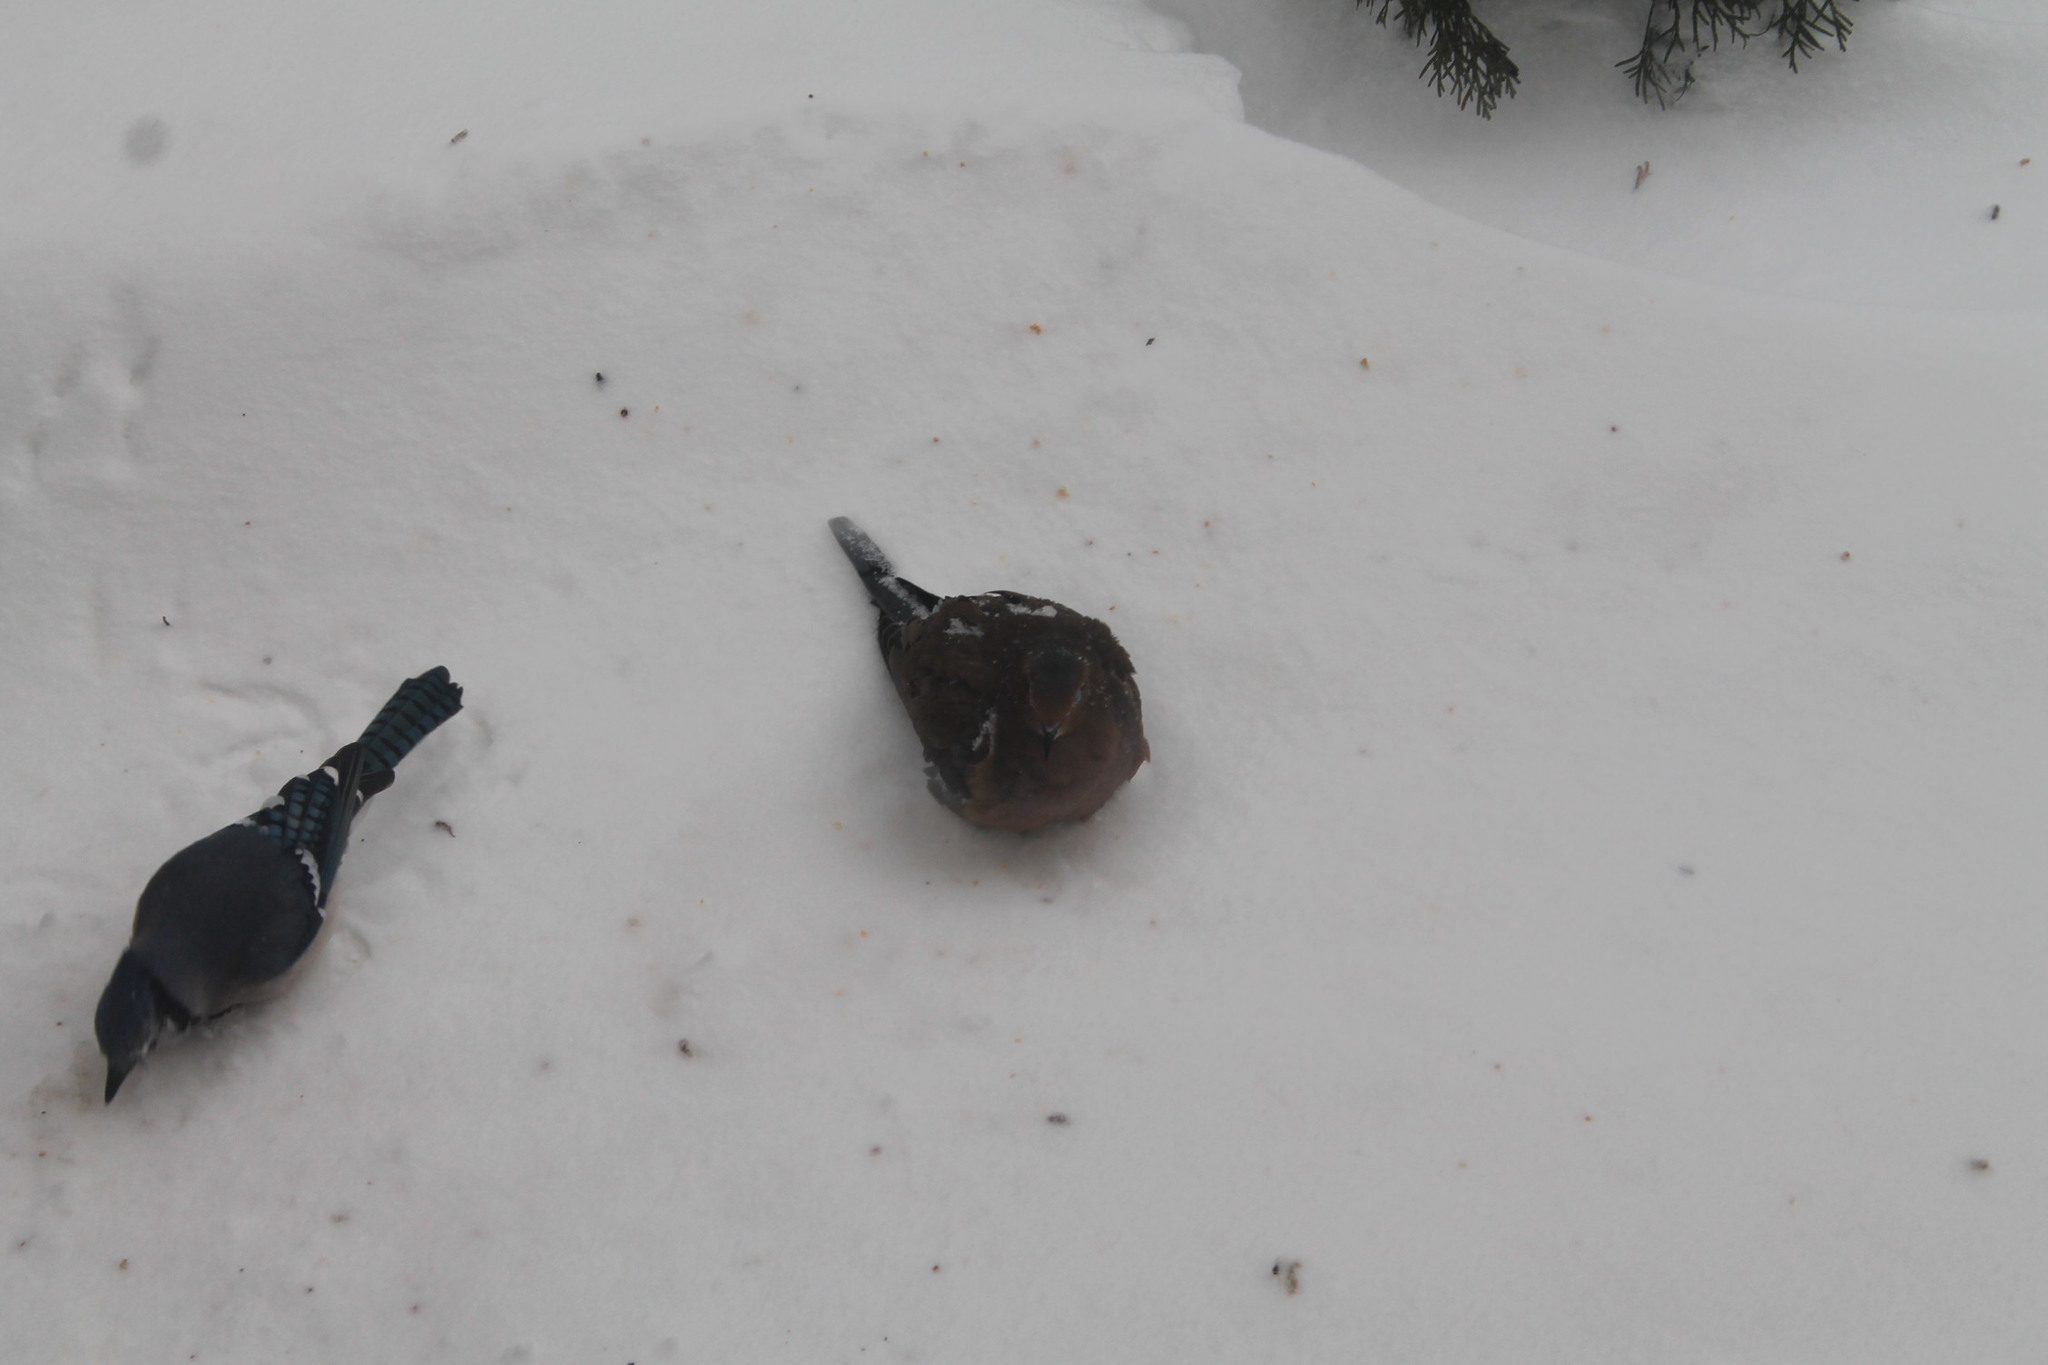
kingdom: Animalia
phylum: Chordata
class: Aves
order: Columbiformes
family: Columbidae
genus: Zenaida
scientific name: Zenaida macroura
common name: Mourning dove
